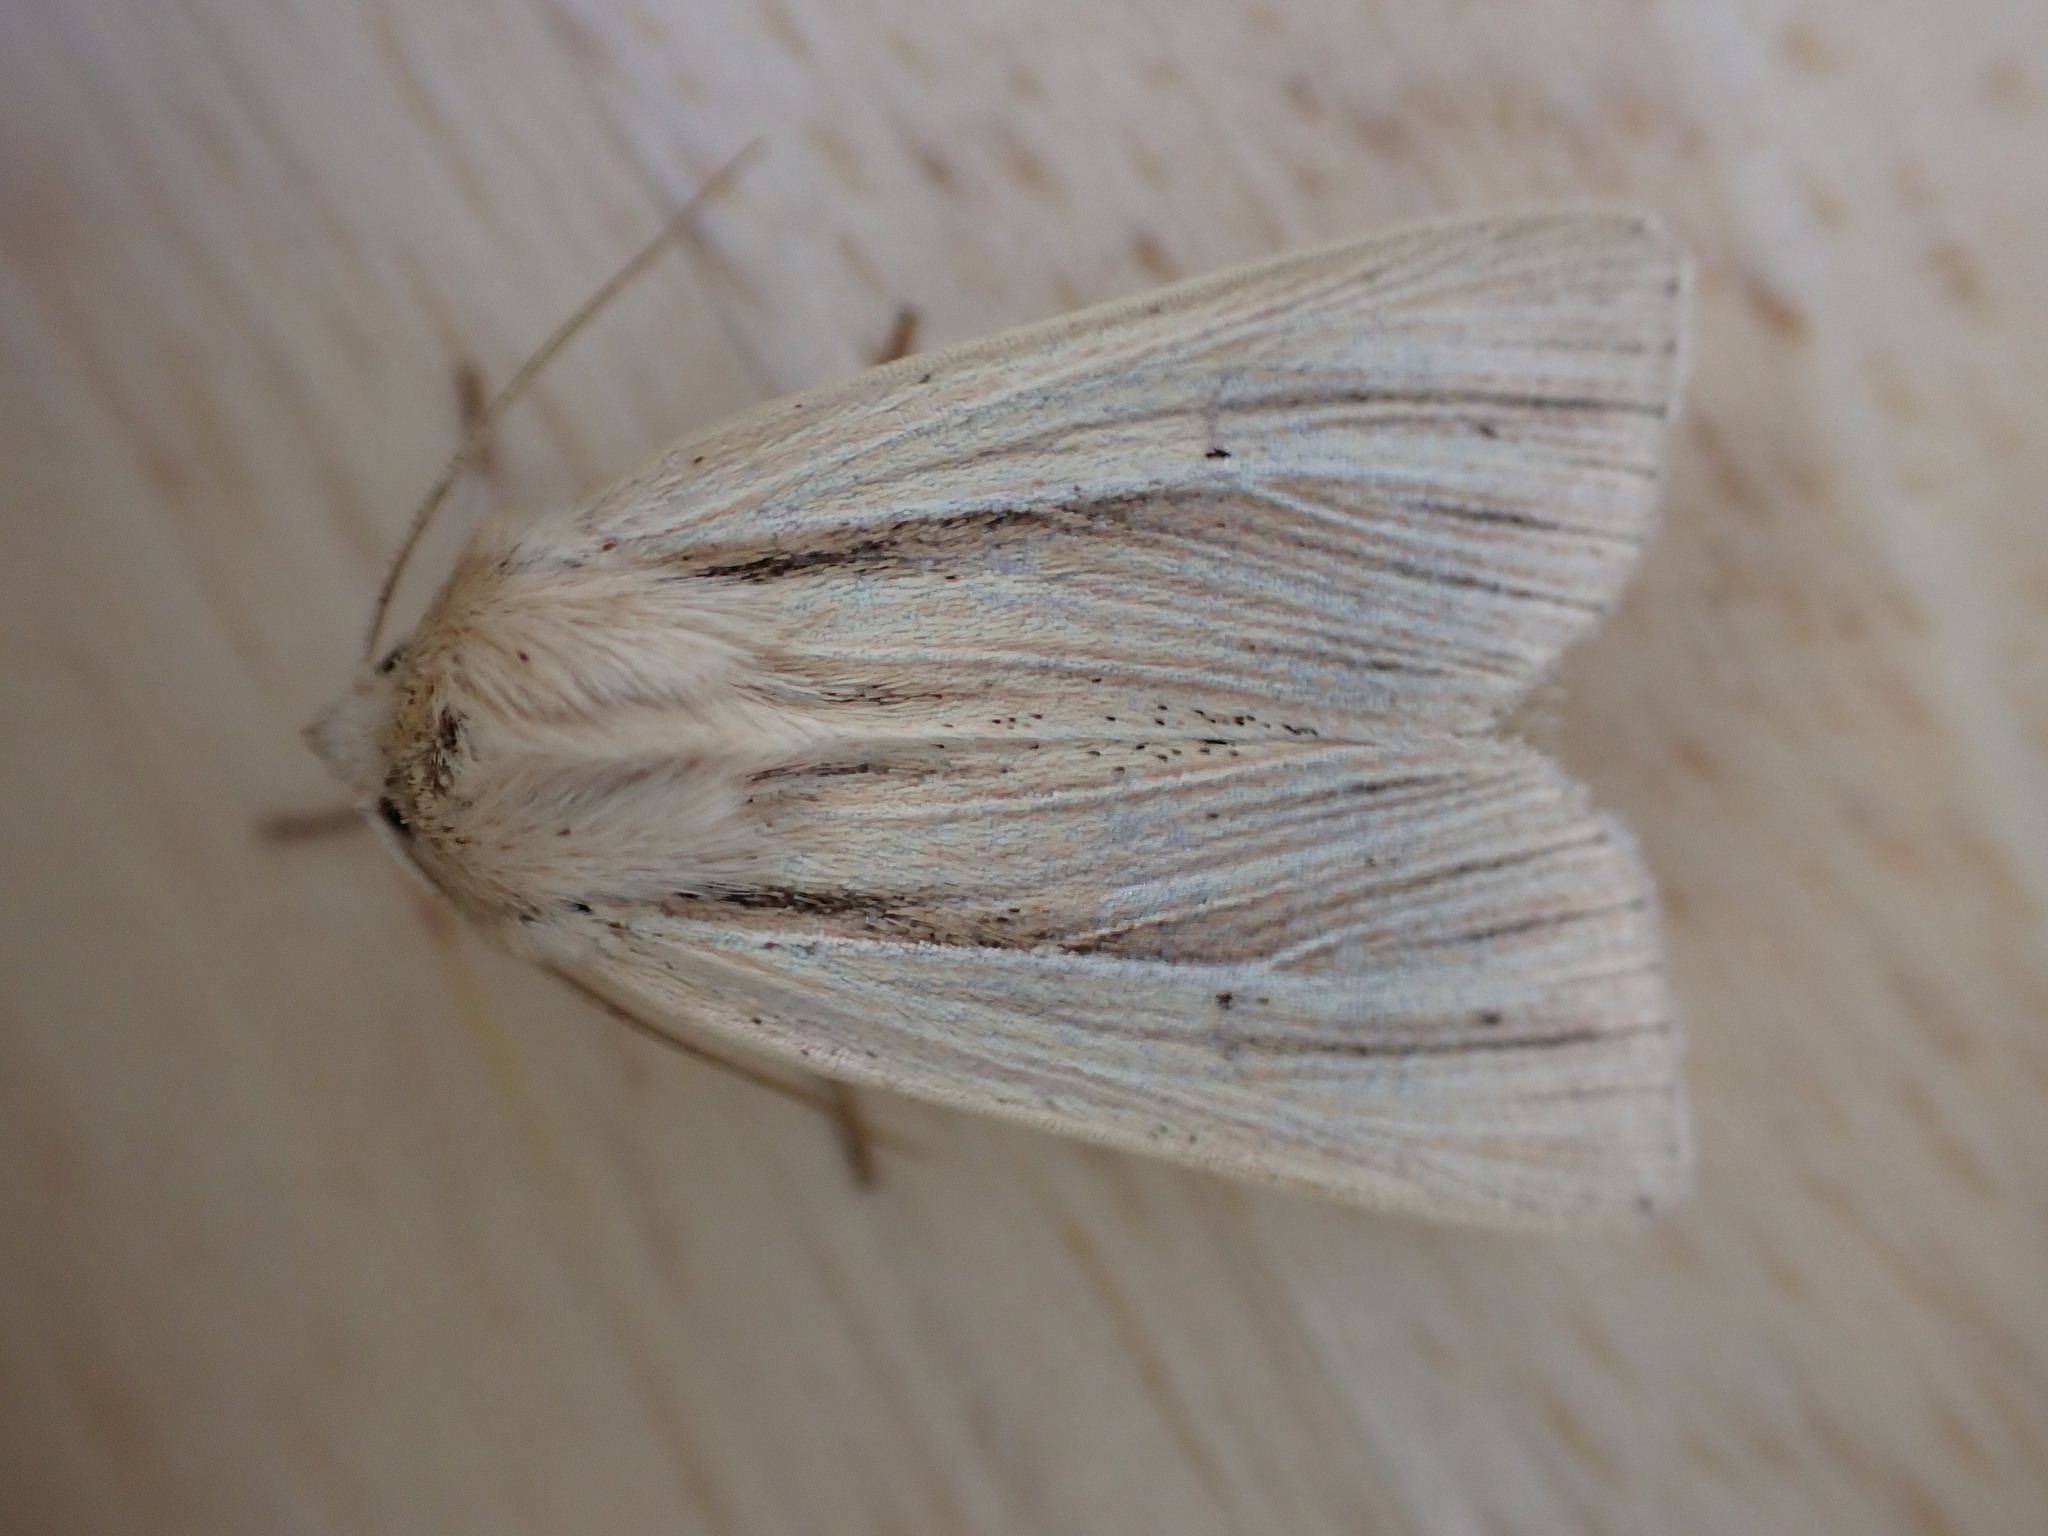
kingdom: Animalia
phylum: Arthropoda
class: Insecta
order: Lepidoptera
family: Noctuidae
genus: Mythimna
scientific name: Mythimna impura
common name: Smoky wainscot
